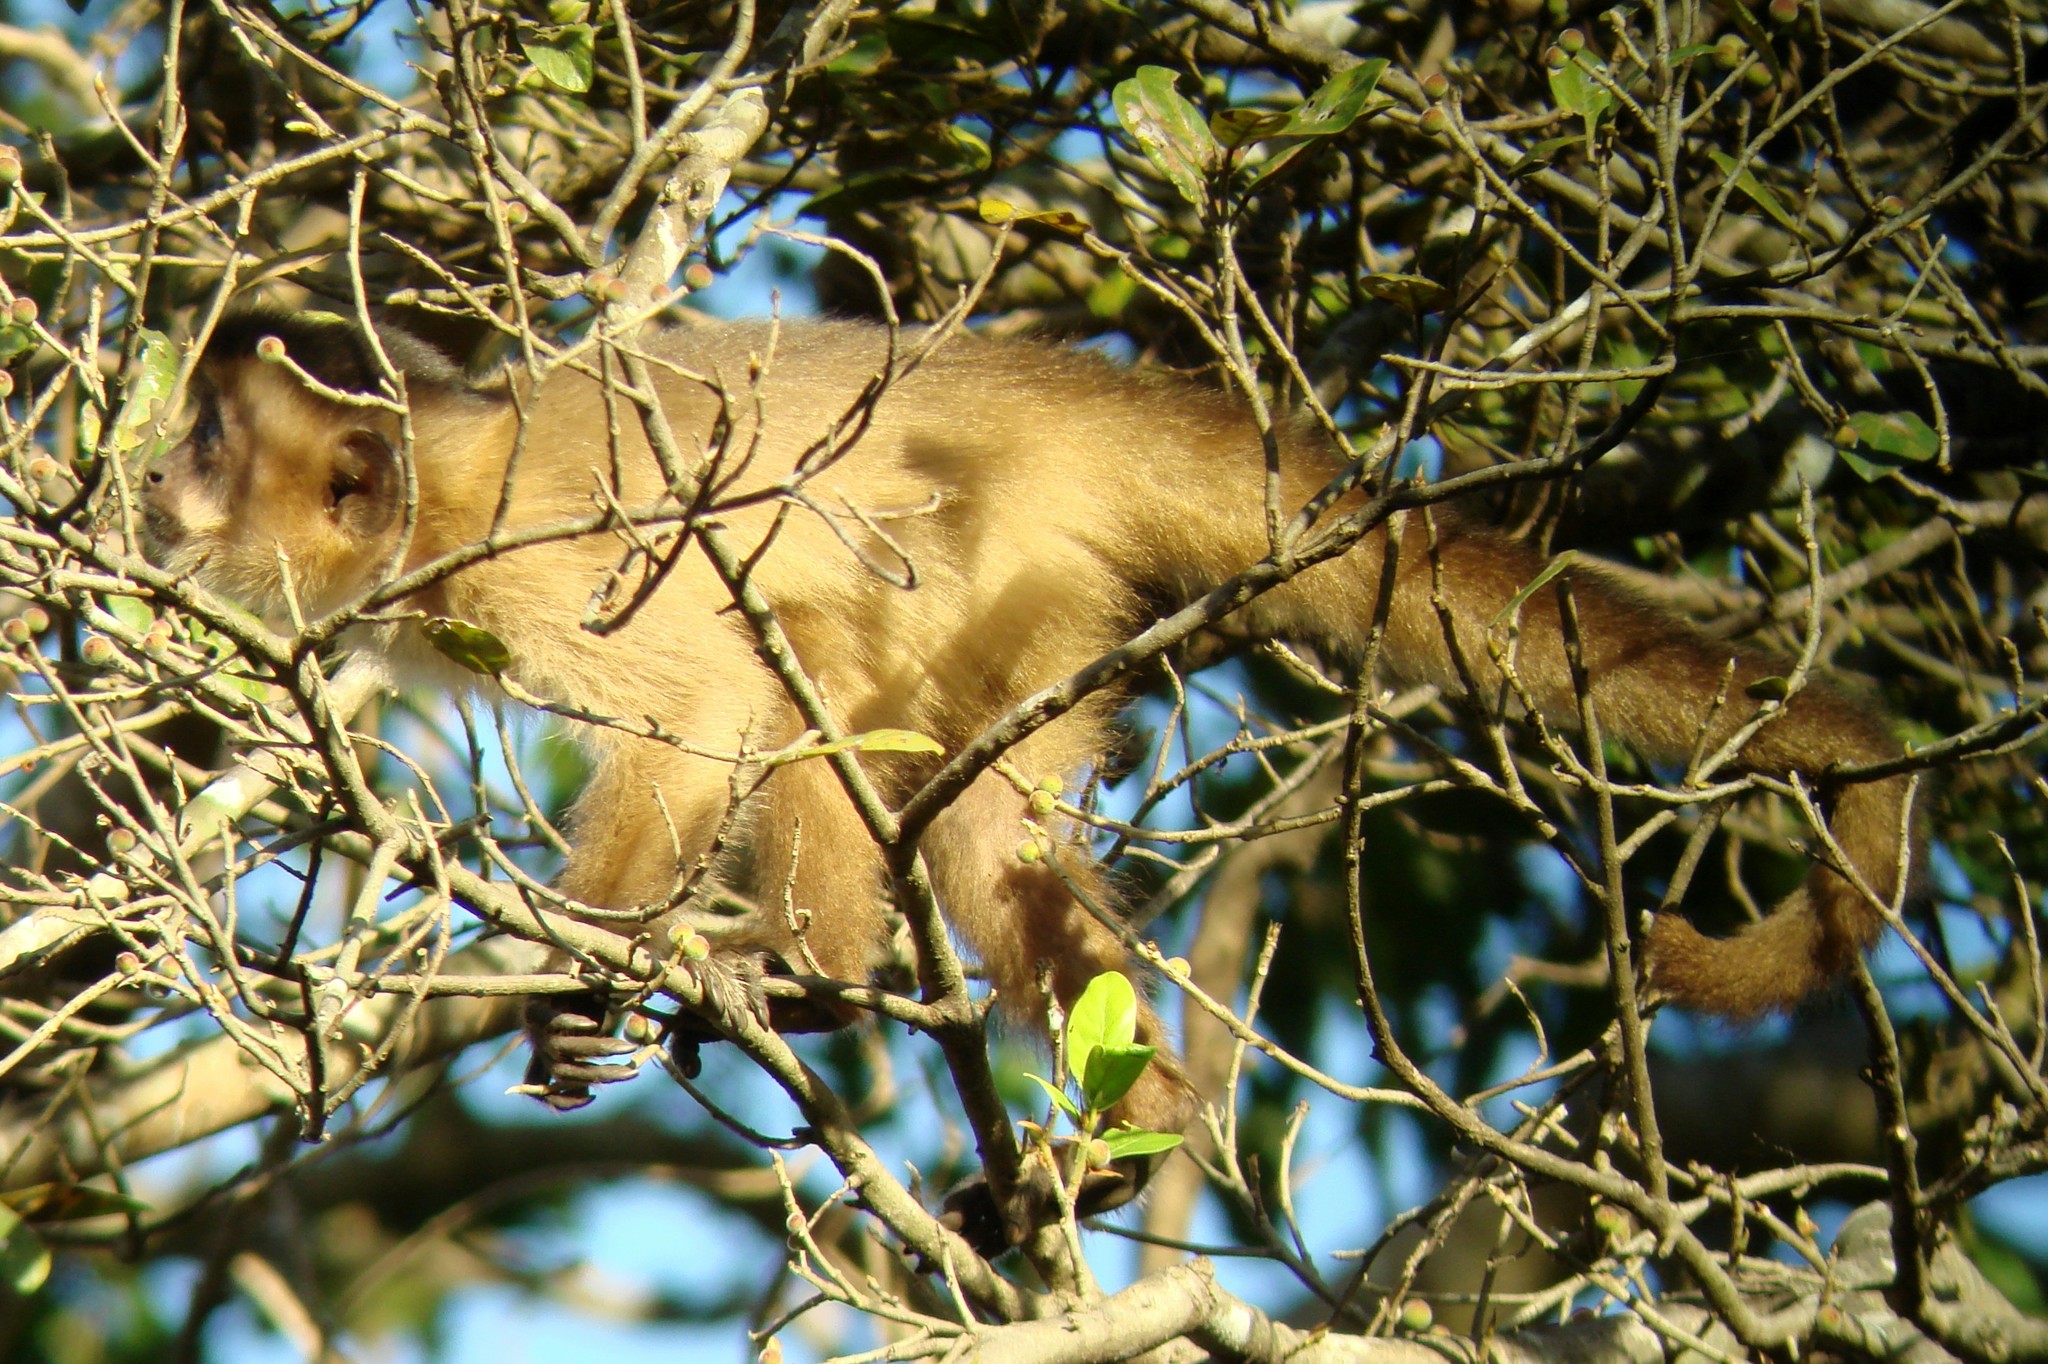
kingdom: Animalia
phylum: Chordata
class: Mammalia
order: Primates
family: Cebidae
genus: Sapajus
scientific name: Sapajus libidinosus
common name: Bearded capuchin
